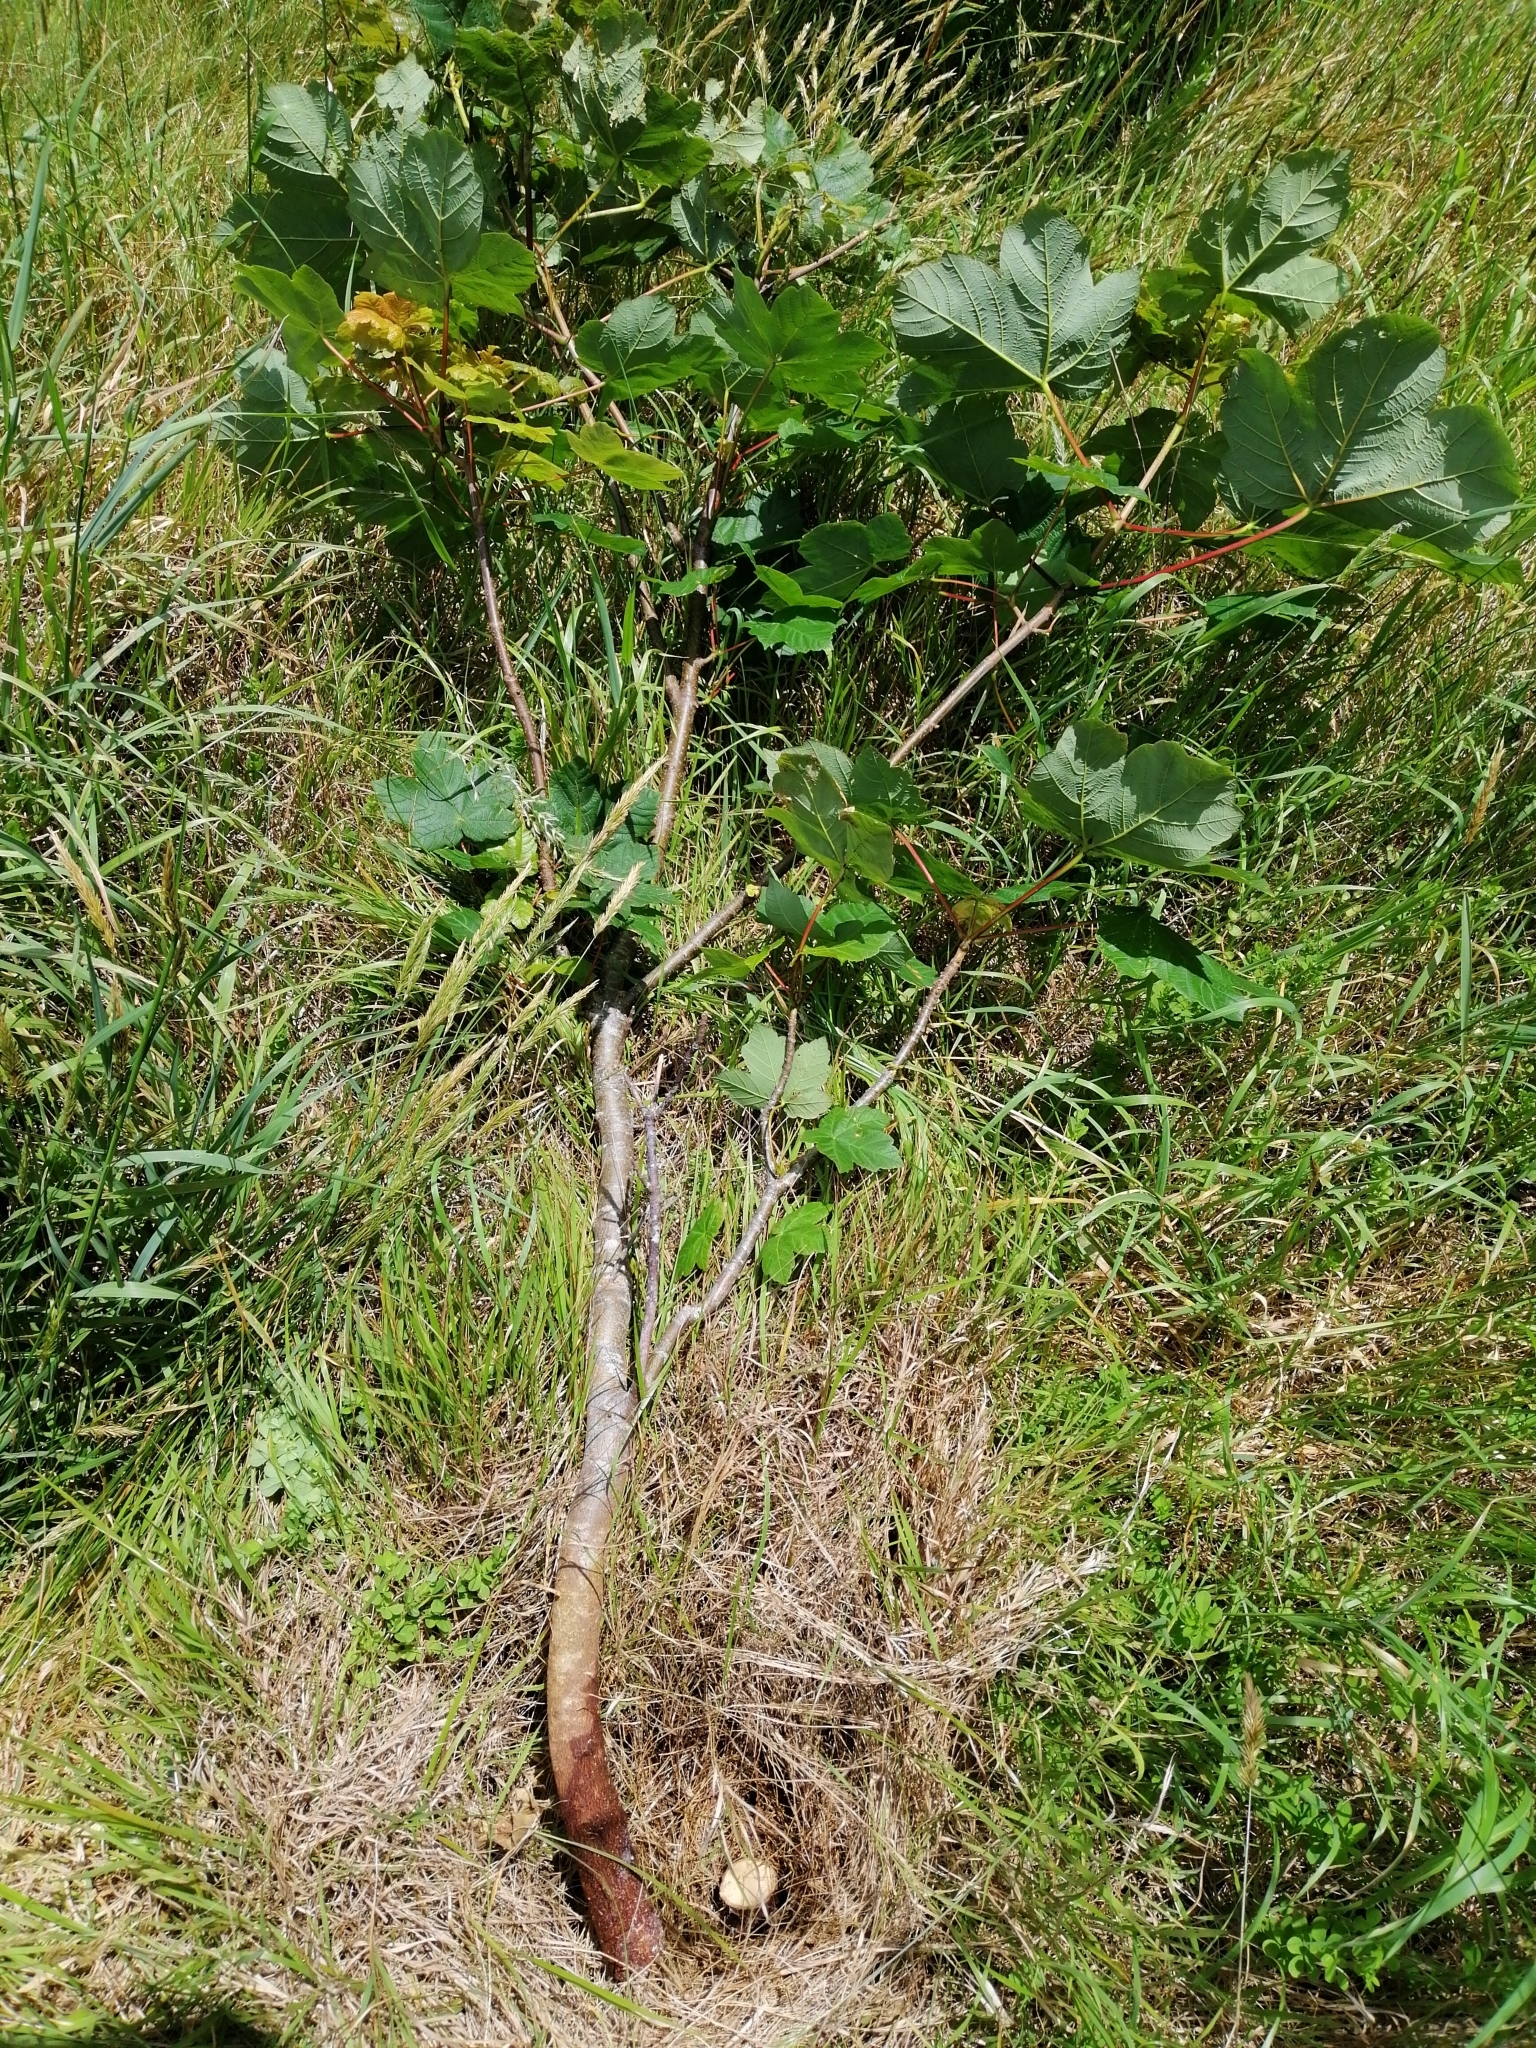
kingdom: Plantae
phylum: Tracheophyta
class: Magnoliopsida
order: Sapindales
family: Sapindaceae
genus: Acer
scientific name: Acer pseudoplatanus
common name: Sycamore
